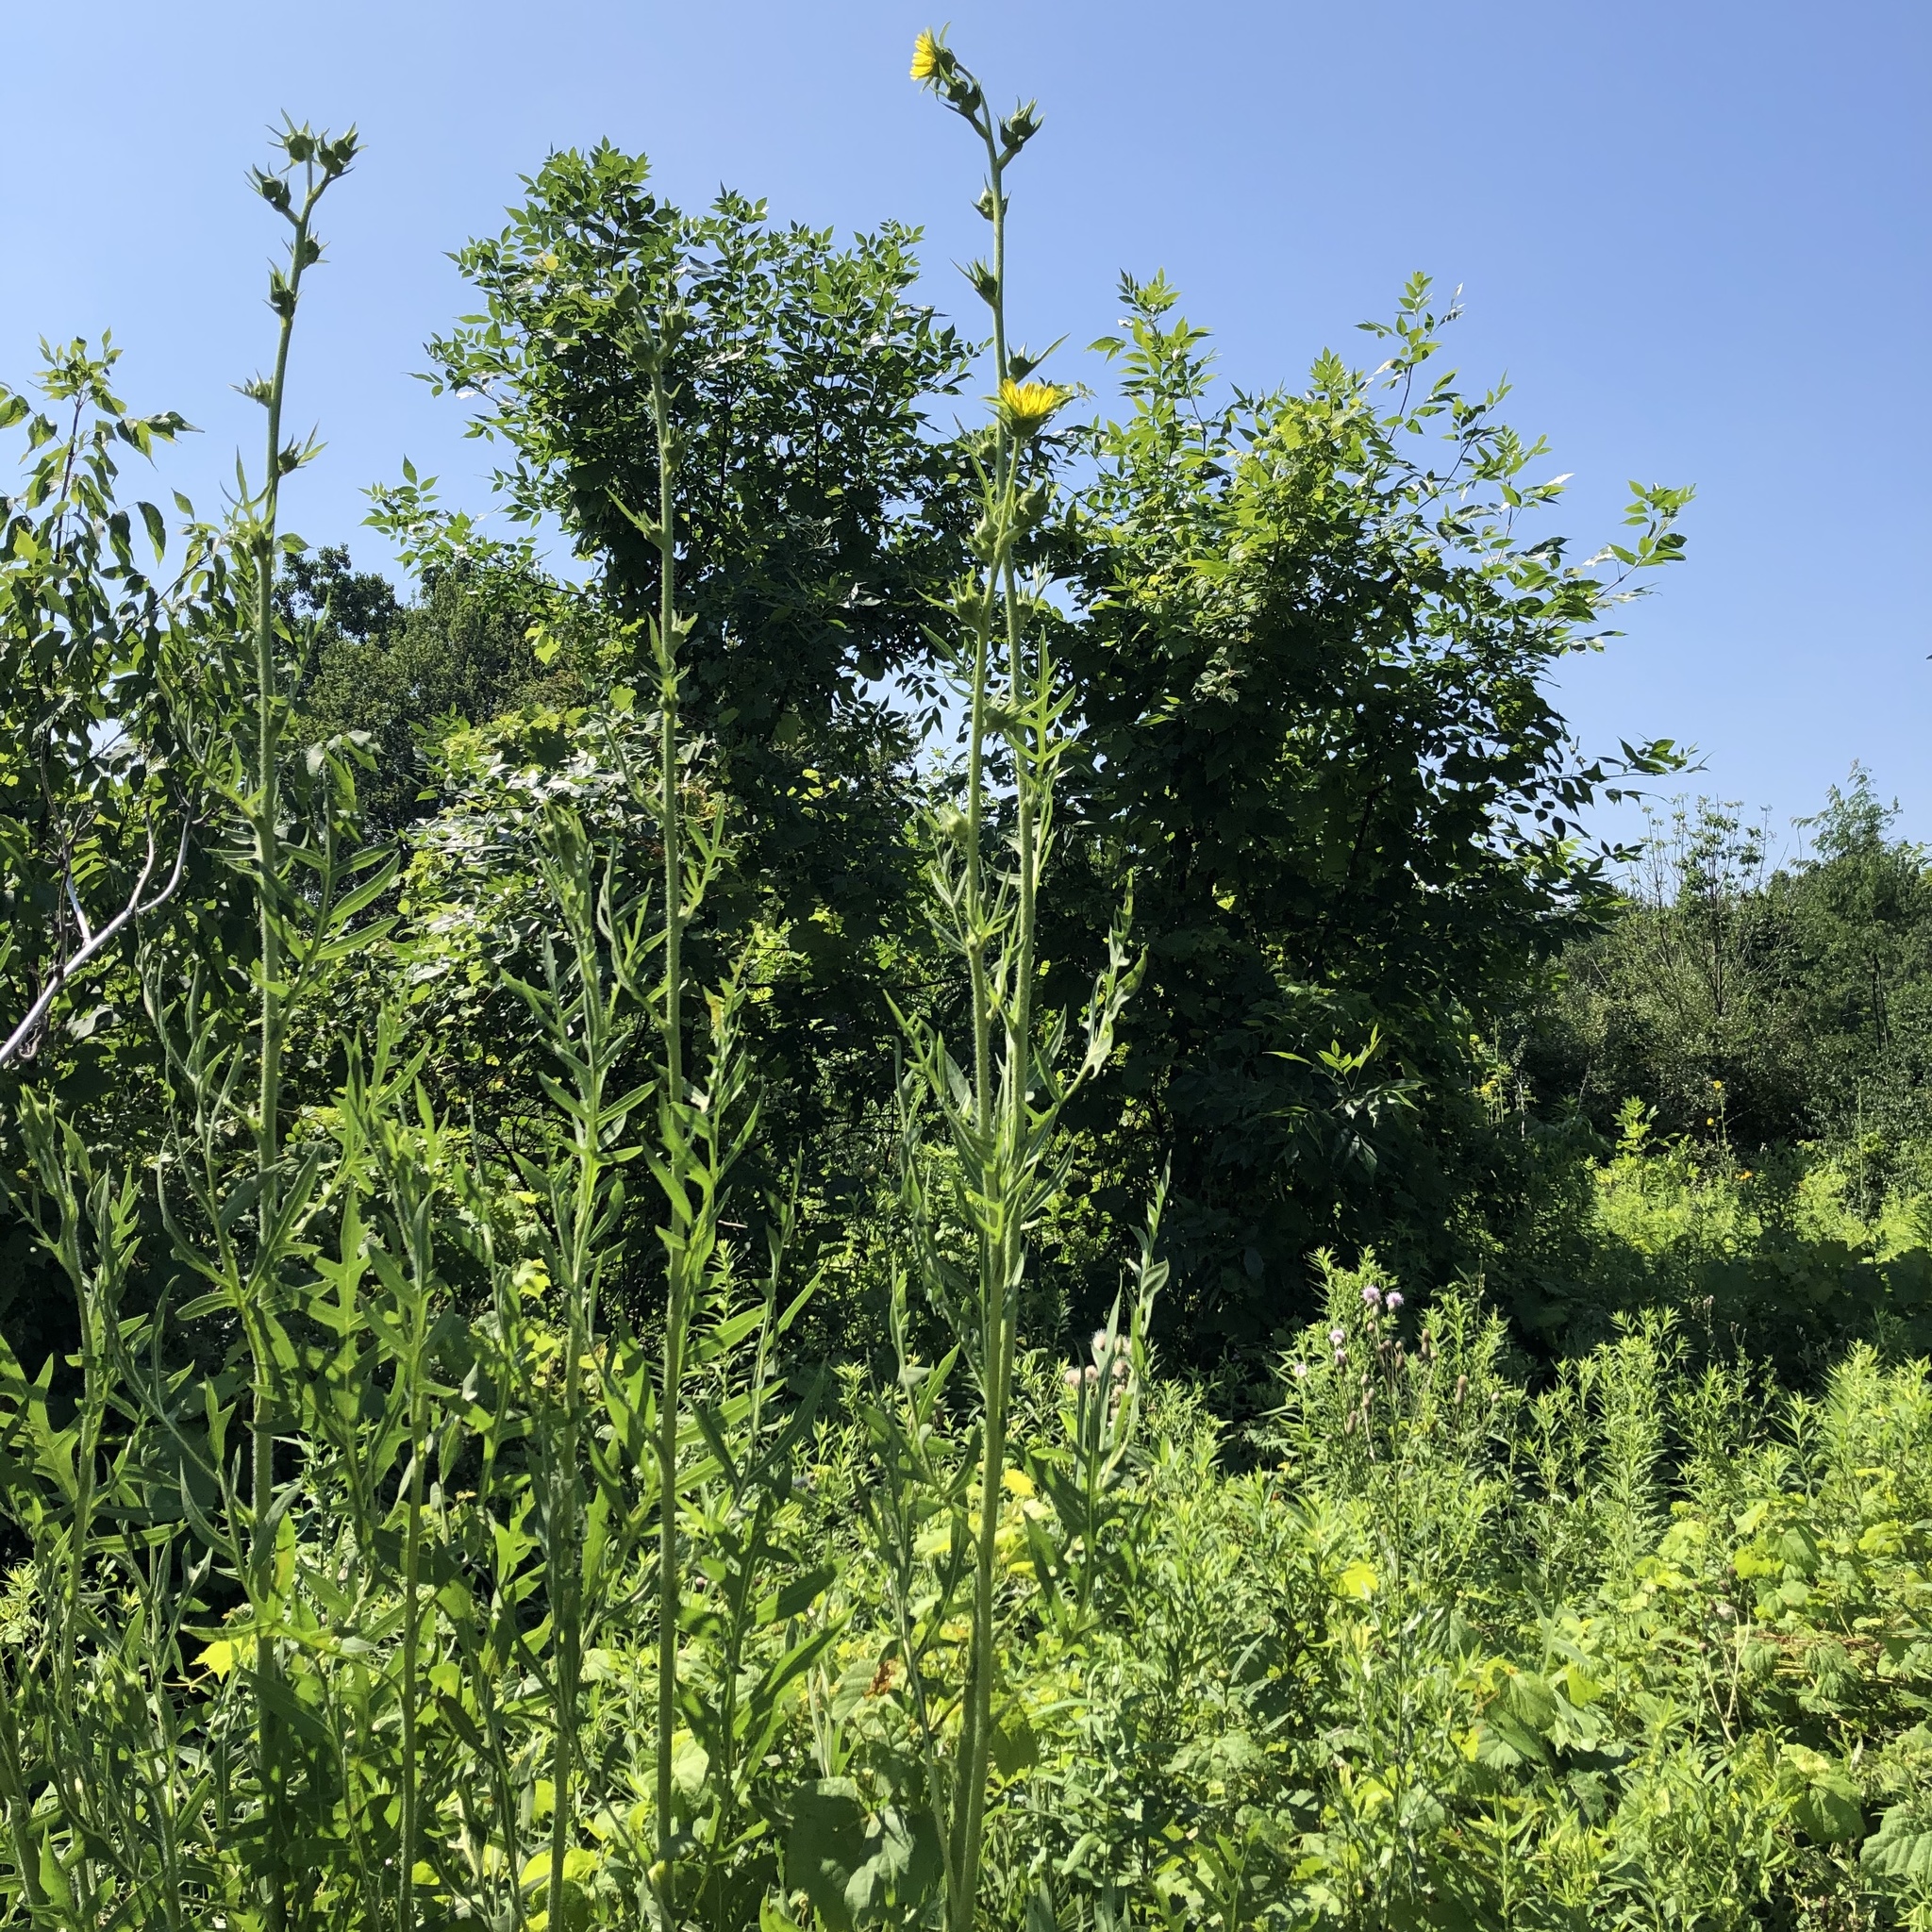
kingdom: Plantae
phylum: Tracheophyta
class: Magnoliopsida
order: Asterales
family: Asteraceae
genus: Silphium
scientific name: Silphium laciniatum
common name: Polarplant
